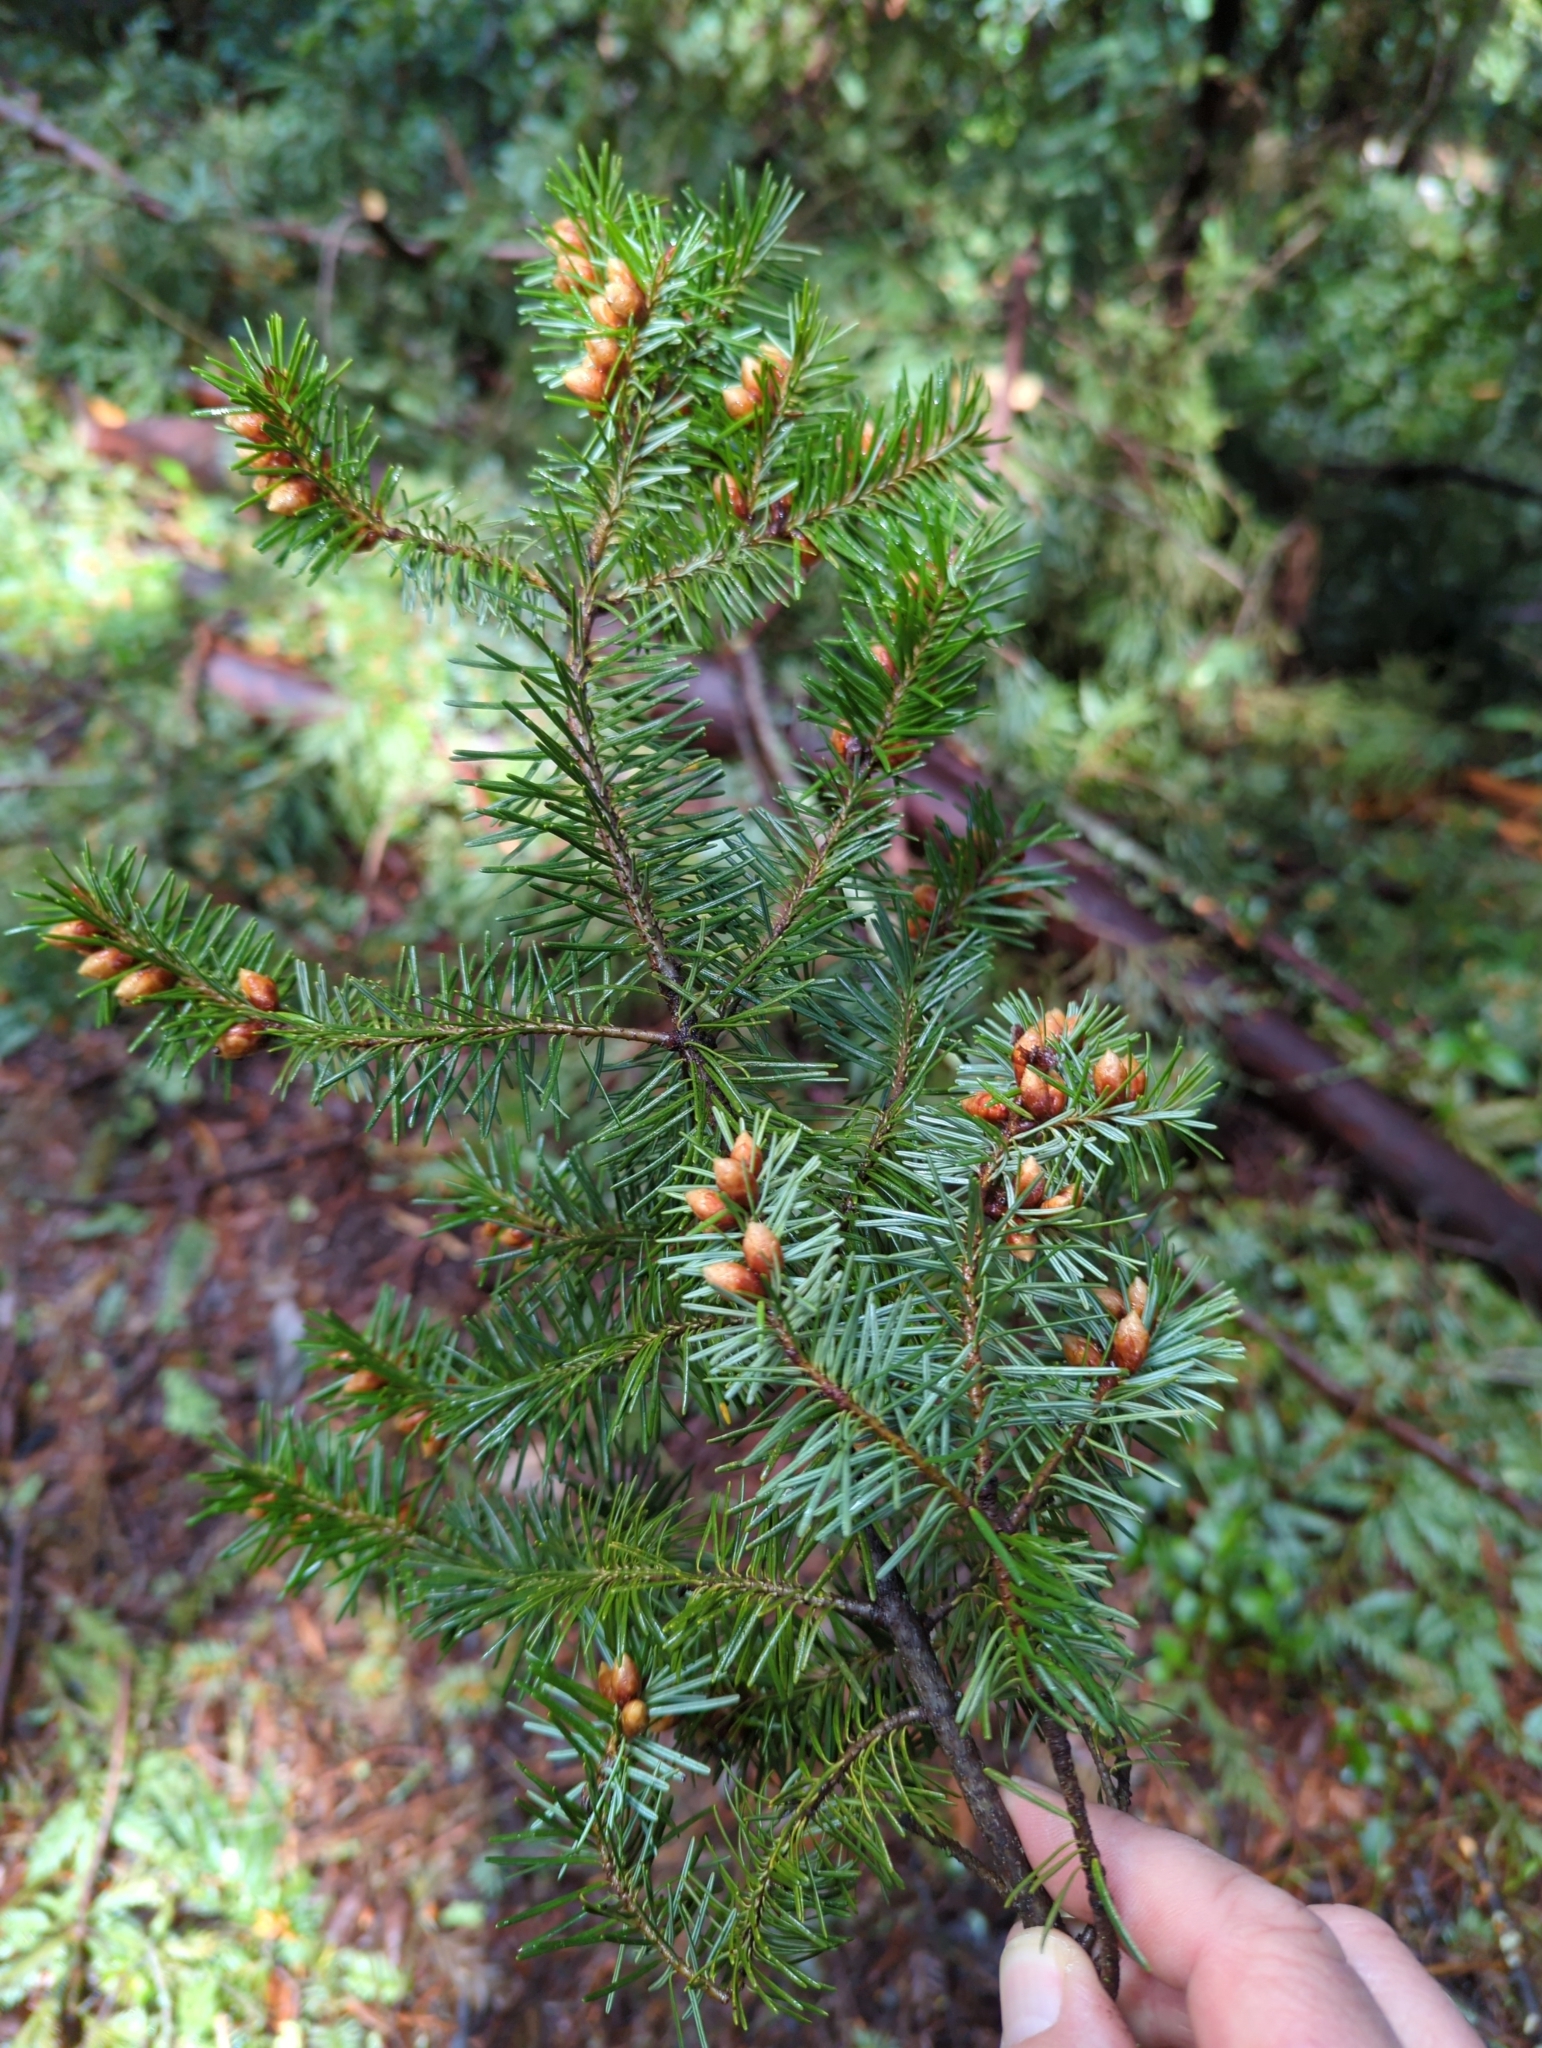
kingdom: Plantae
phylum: Tracheophyta
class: Pinopsida
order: Pinales
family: Pinaceae
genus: Pseudotsuga
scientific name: Pseudotsuga menziesii
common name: Douglas fir
